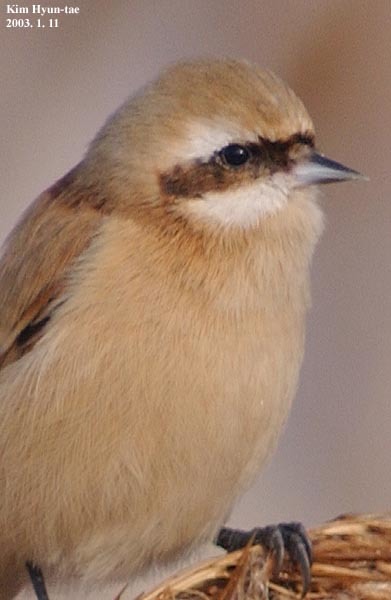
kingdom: Animalia
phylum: Chordata
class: Aves
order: Passeriformes
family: Remizidae
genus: Remiz
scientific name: Remiz consobrinus
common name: Chinese penduline tit
